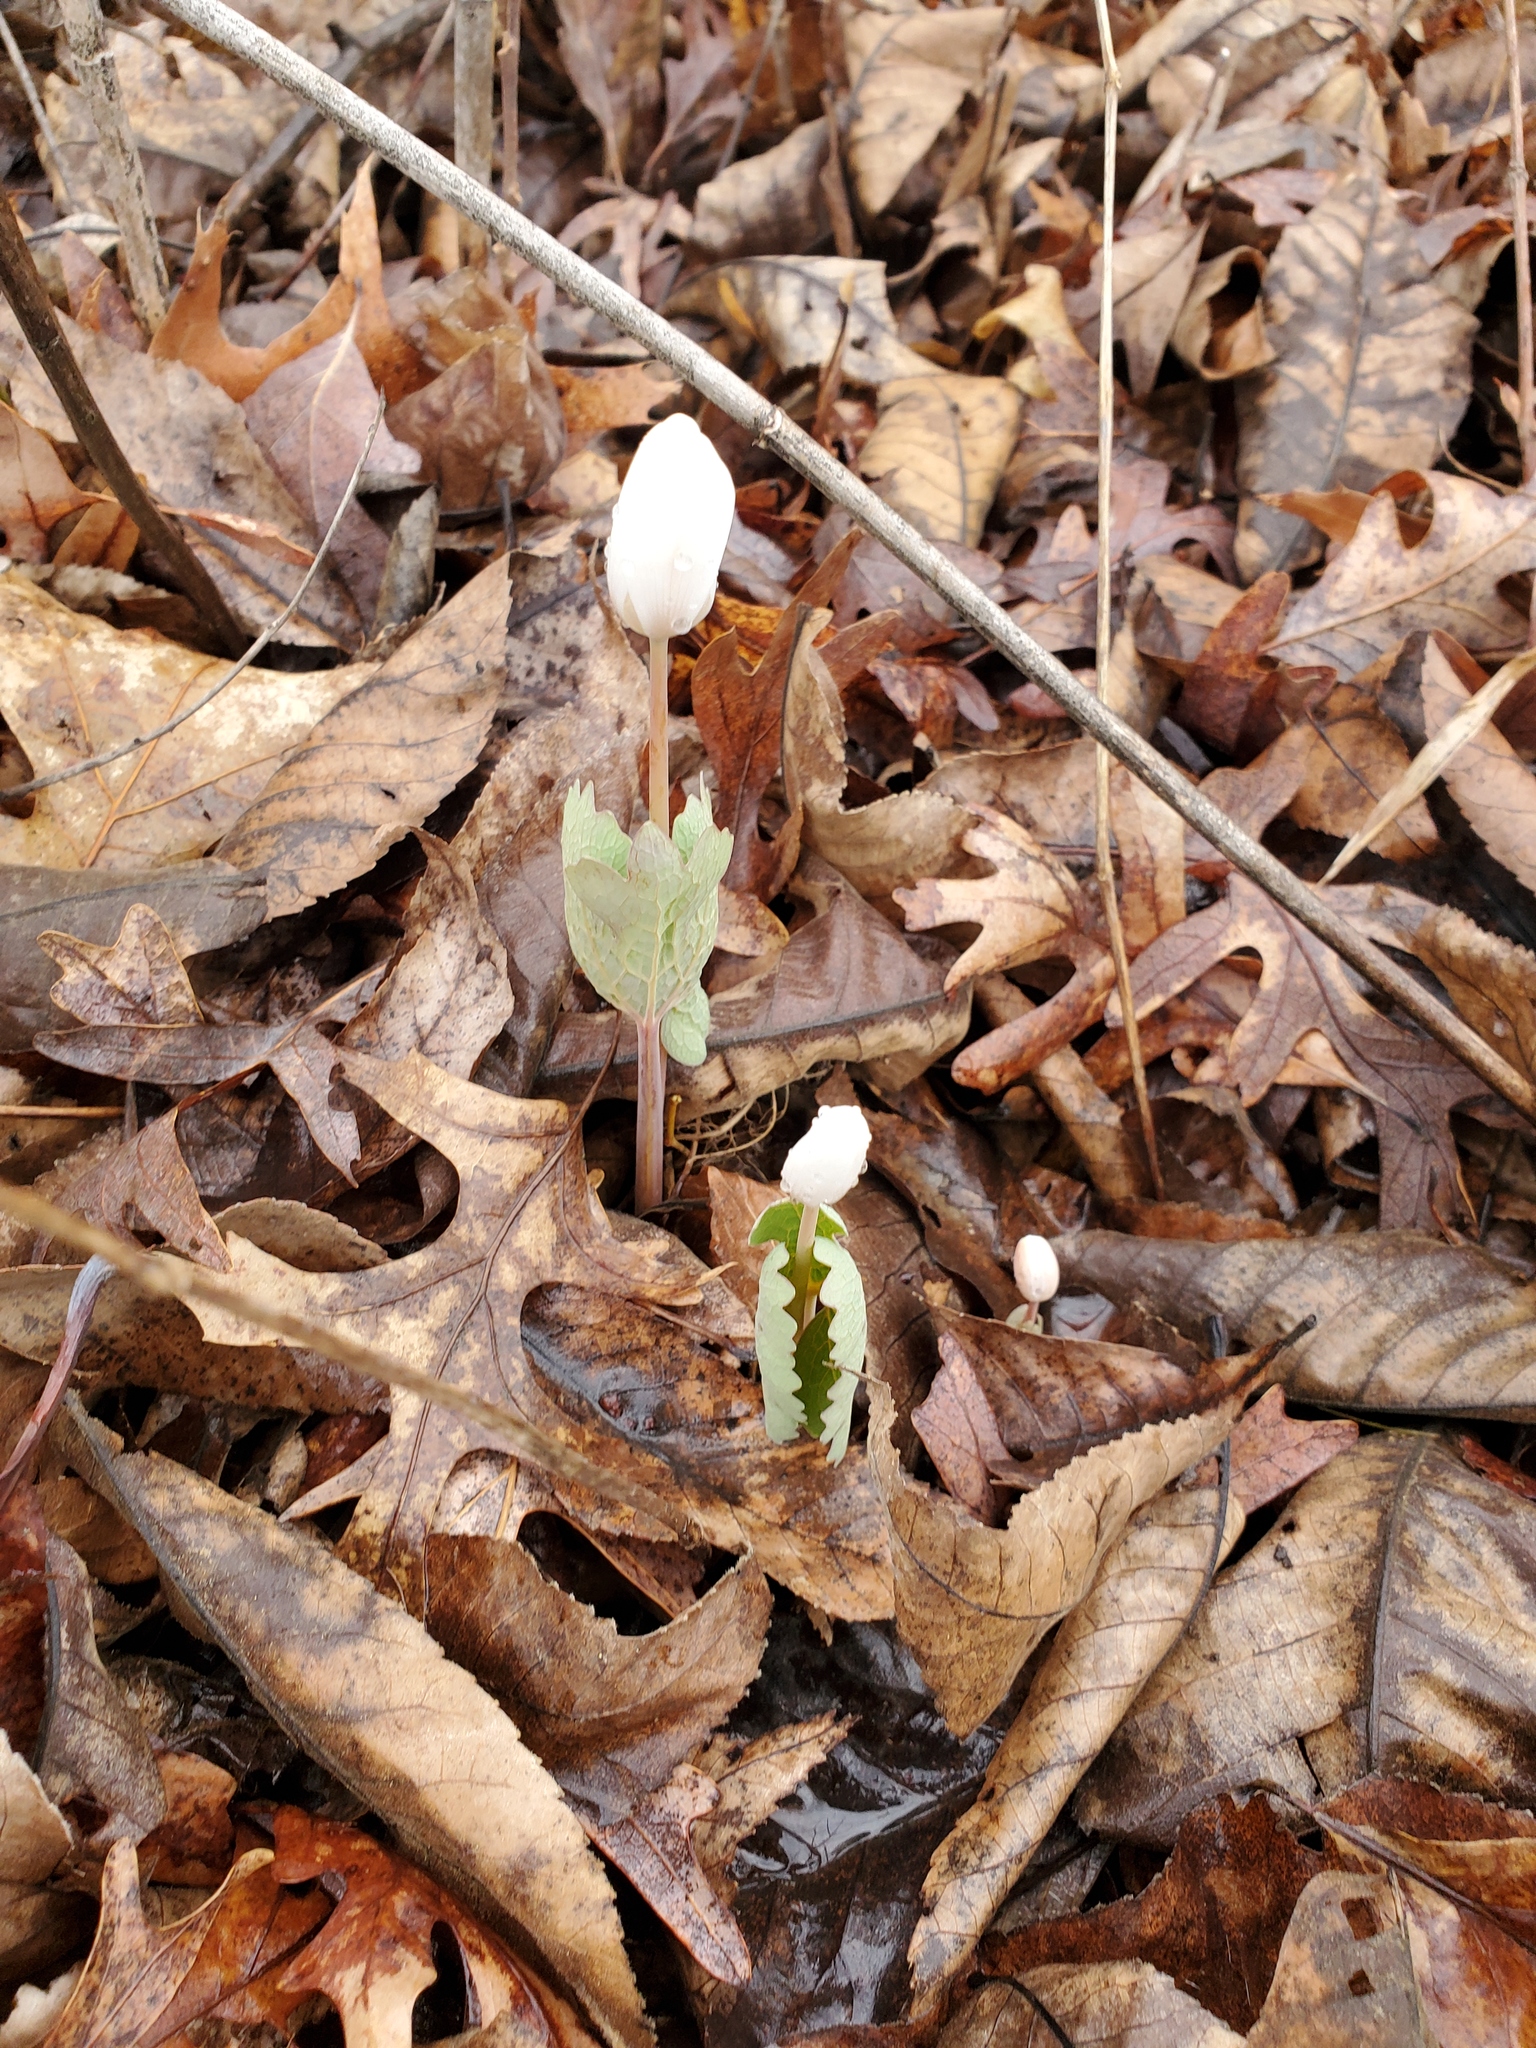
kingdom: Plantae
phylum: Tracheophyta
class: Magnoliopsida
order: Ranunculales
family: Papaveraceae
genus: Sanguinaria
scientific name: Sanguinaria canadensis
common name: Bloodroot
